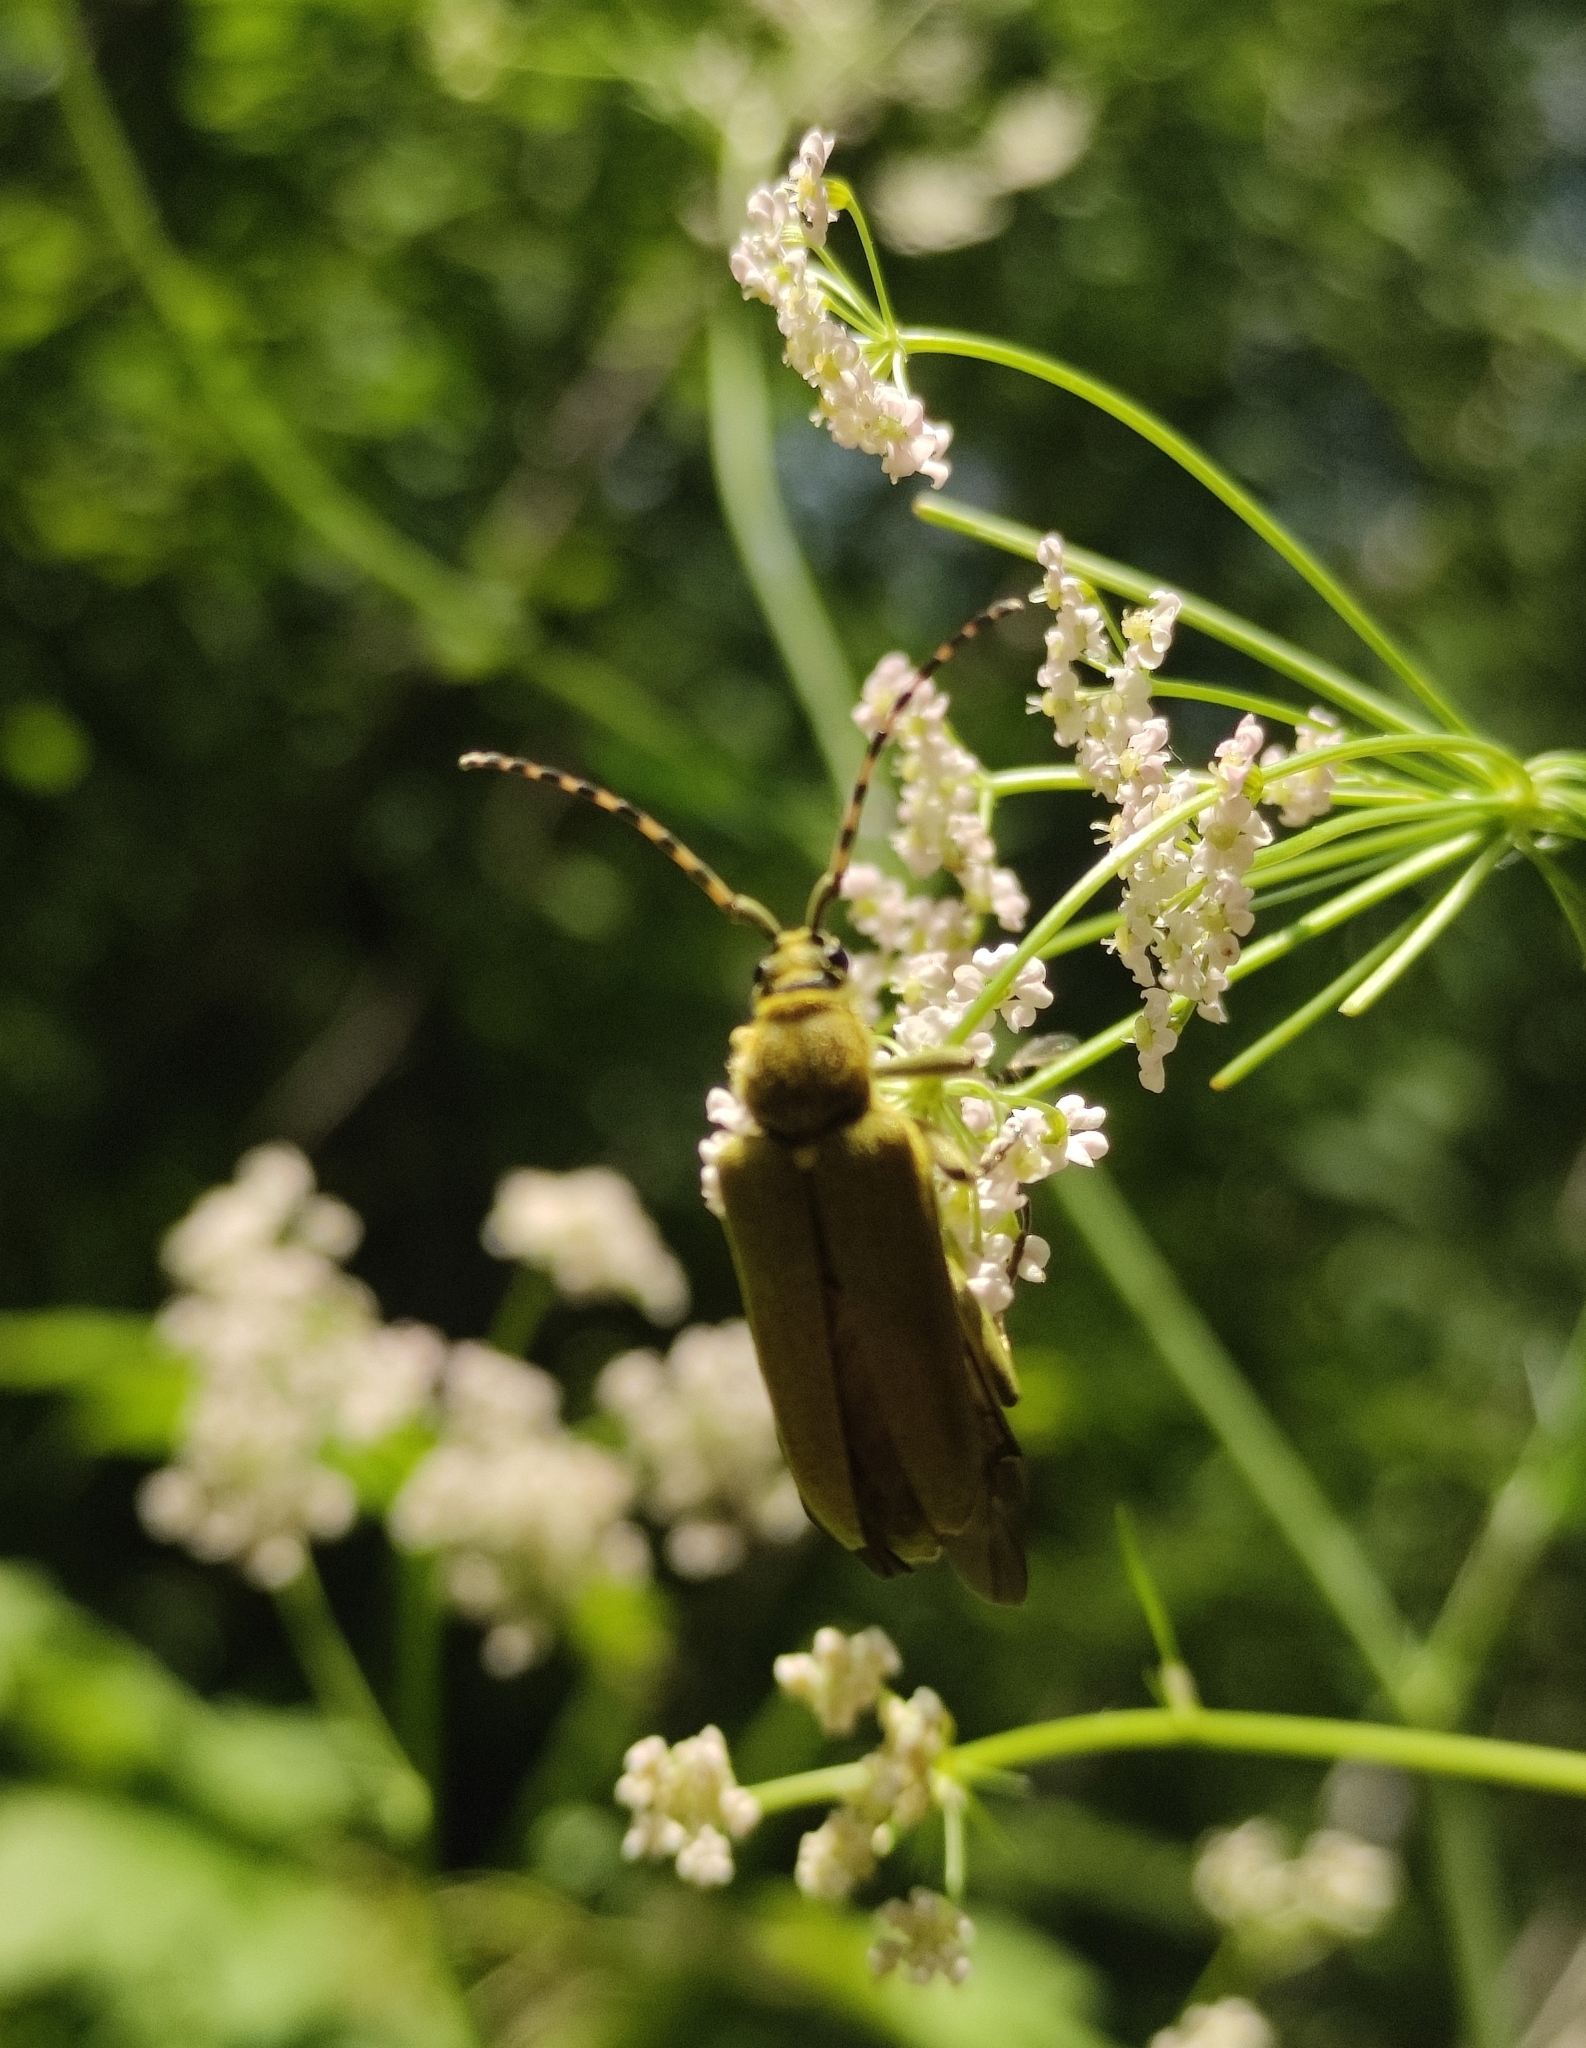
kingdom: Animalia
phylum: Arthropoda
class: Insecta
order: Coleoptera
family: Cerambycidae
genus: Lepturobosca
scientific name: Lepturobosca virens
